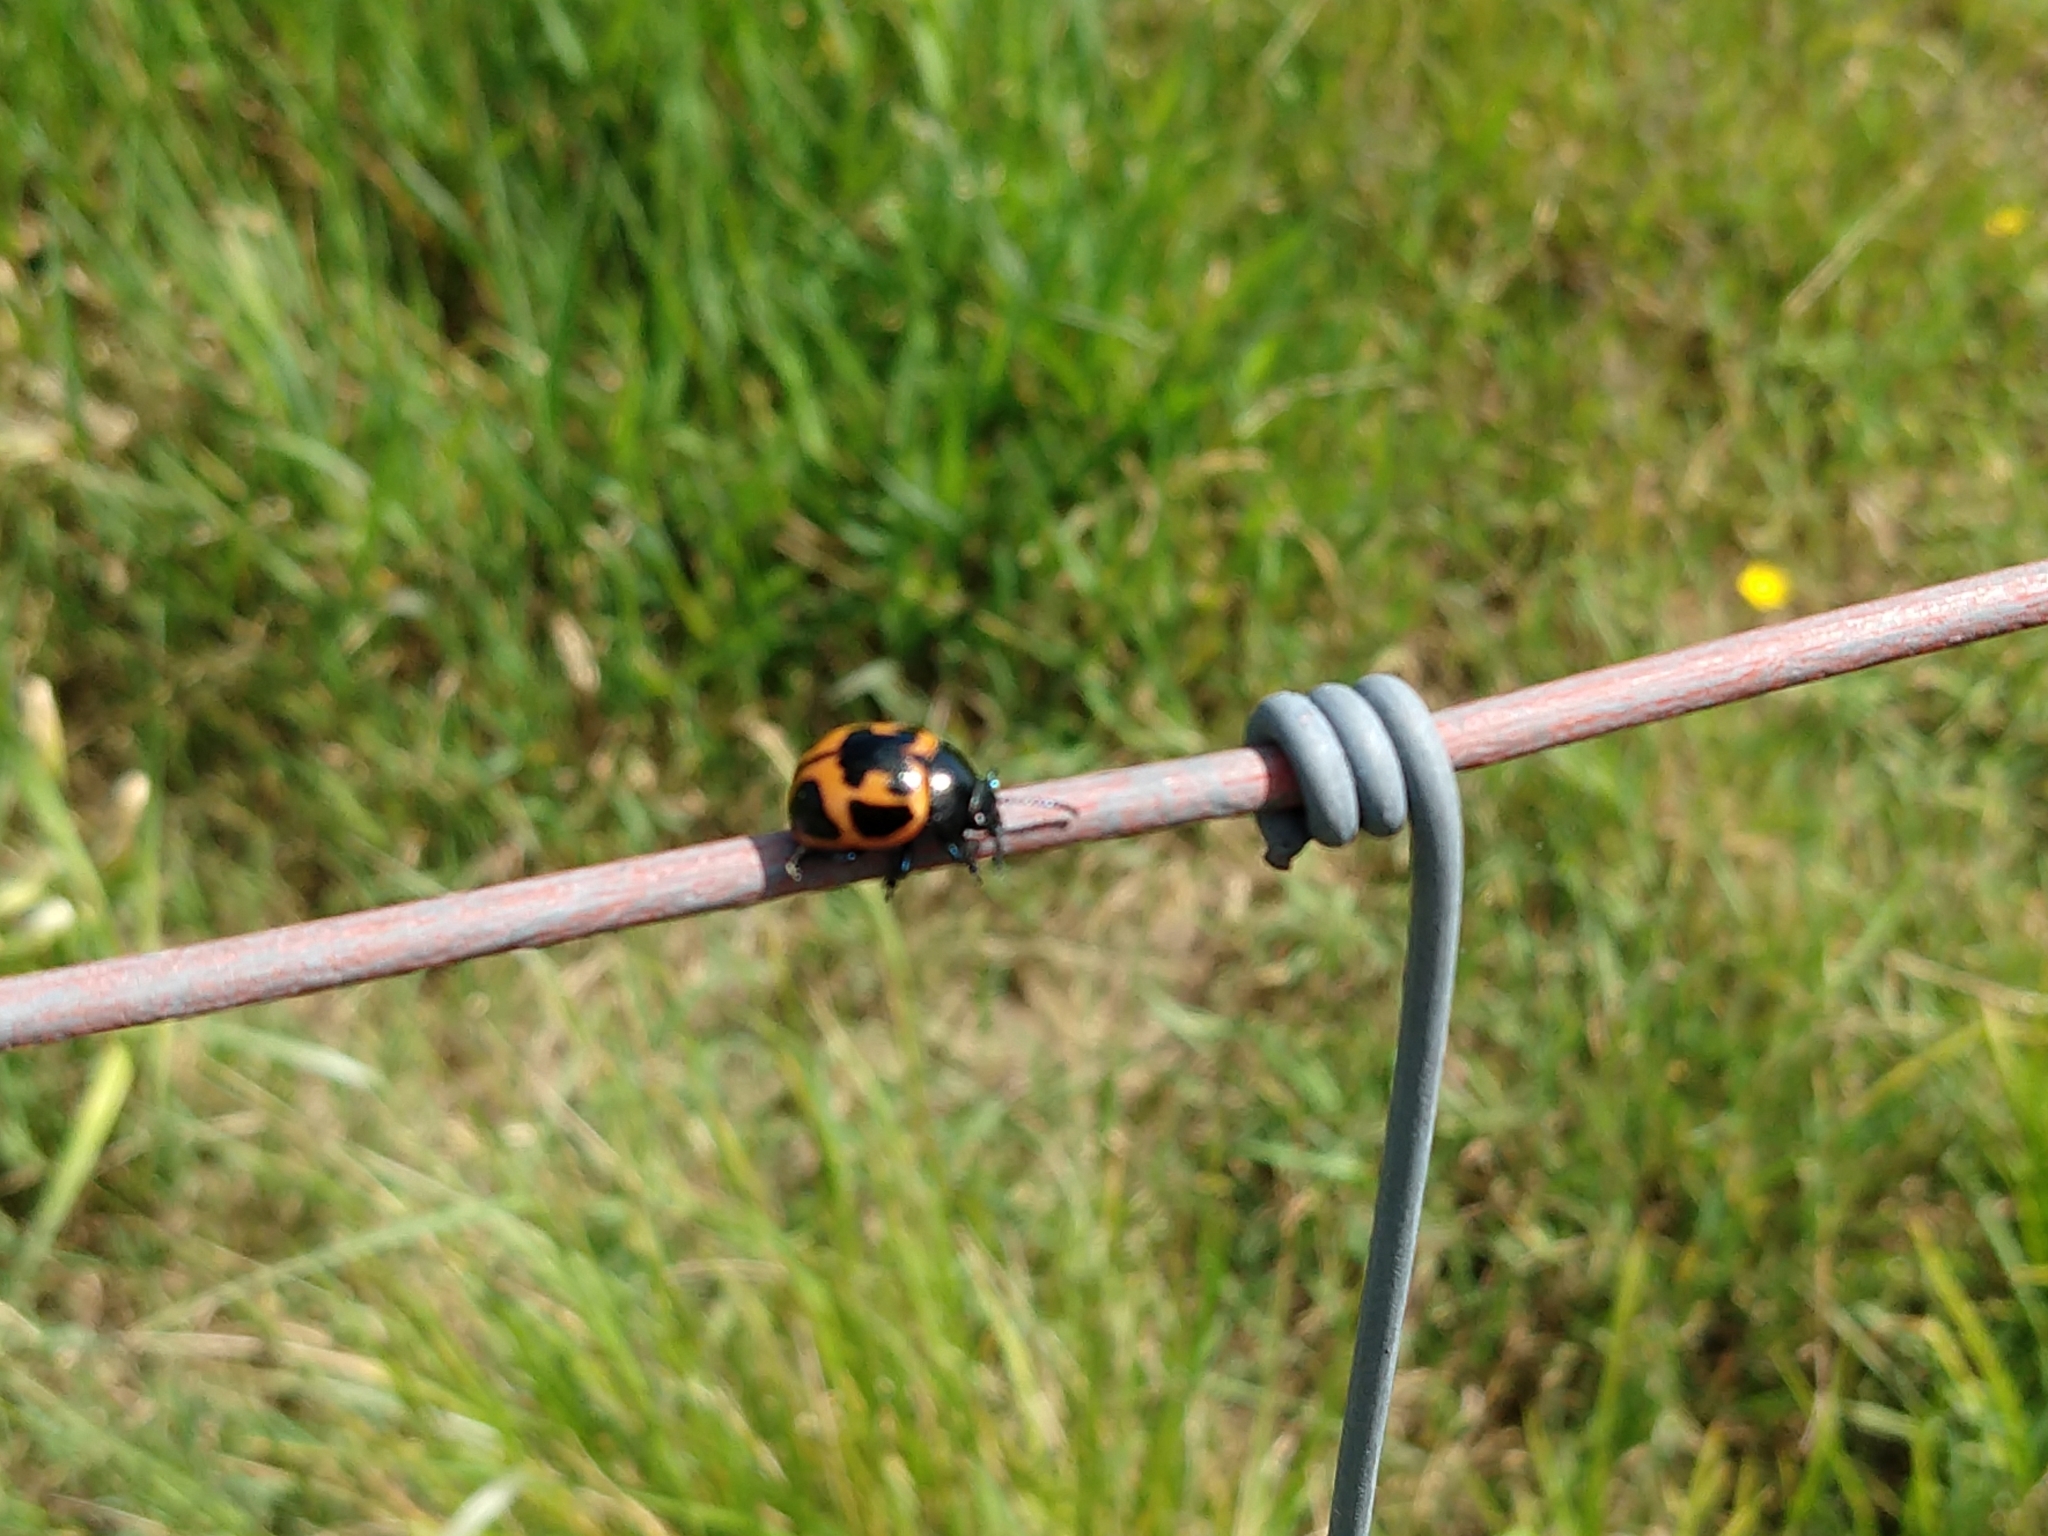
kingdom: Animalia
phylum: Arthropoda
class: Insecta
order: Coleoptera
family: Chrysomelidae
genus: Labidomera
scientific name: Labidomera clivicollis
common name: Swamp milkweed leaf beetle
